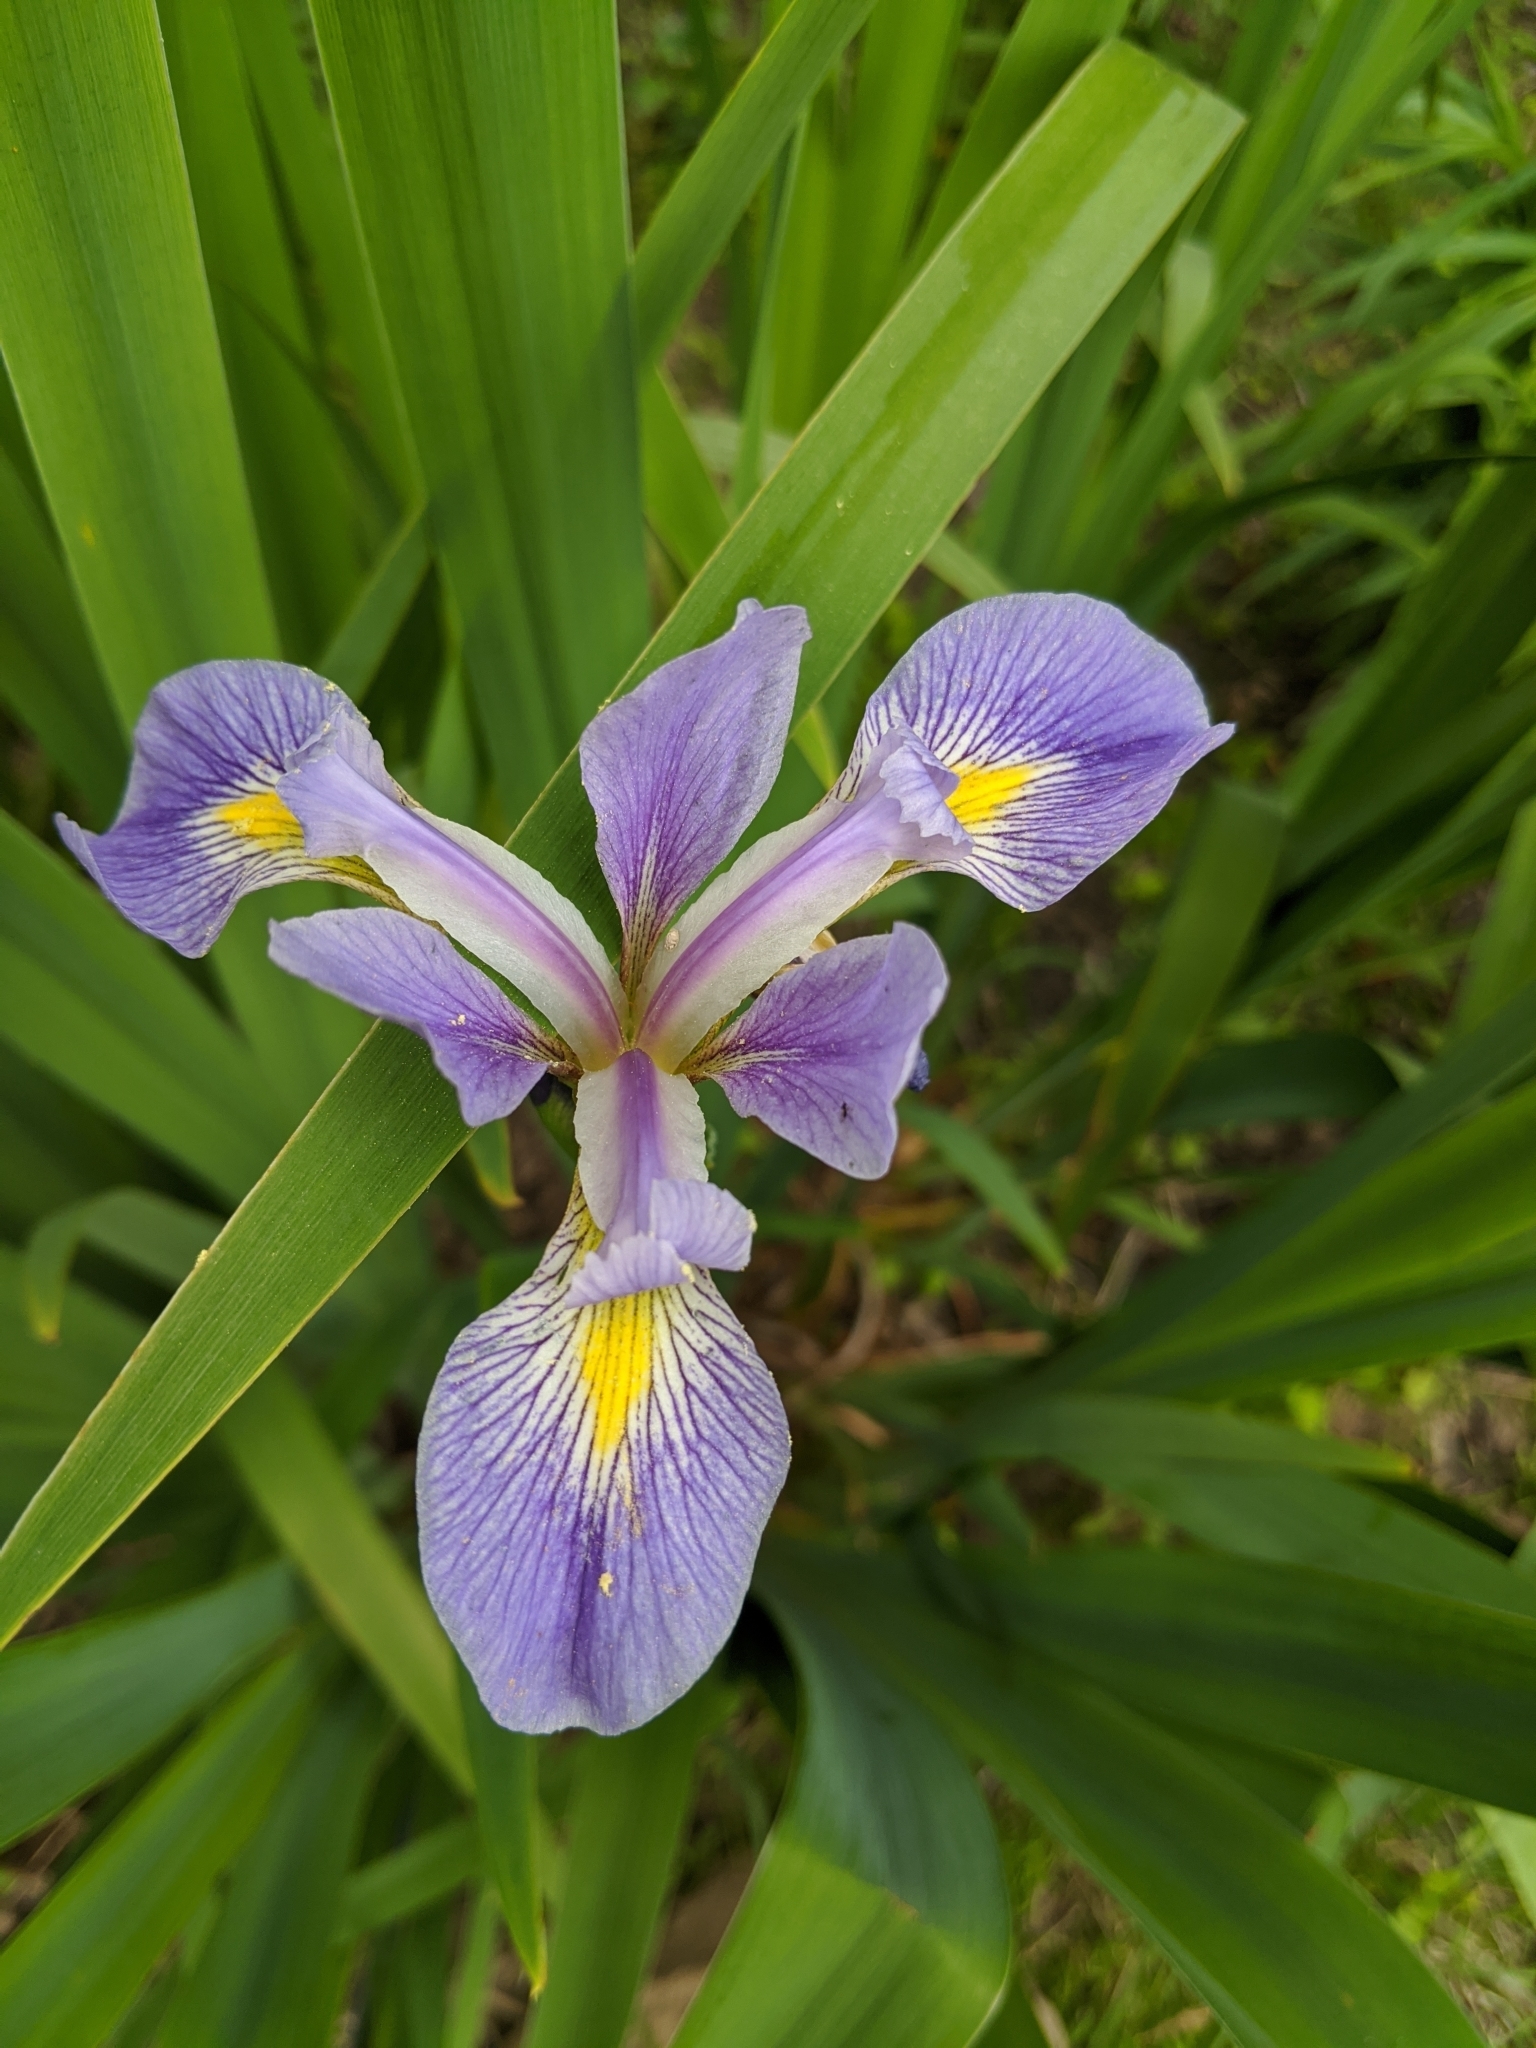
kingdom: Plantae
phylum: Tracheophyta
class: Liliopsida
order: Asparagales
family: Iridaceae
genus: Iris
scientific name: Iris virginica
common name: Southern blue flag
